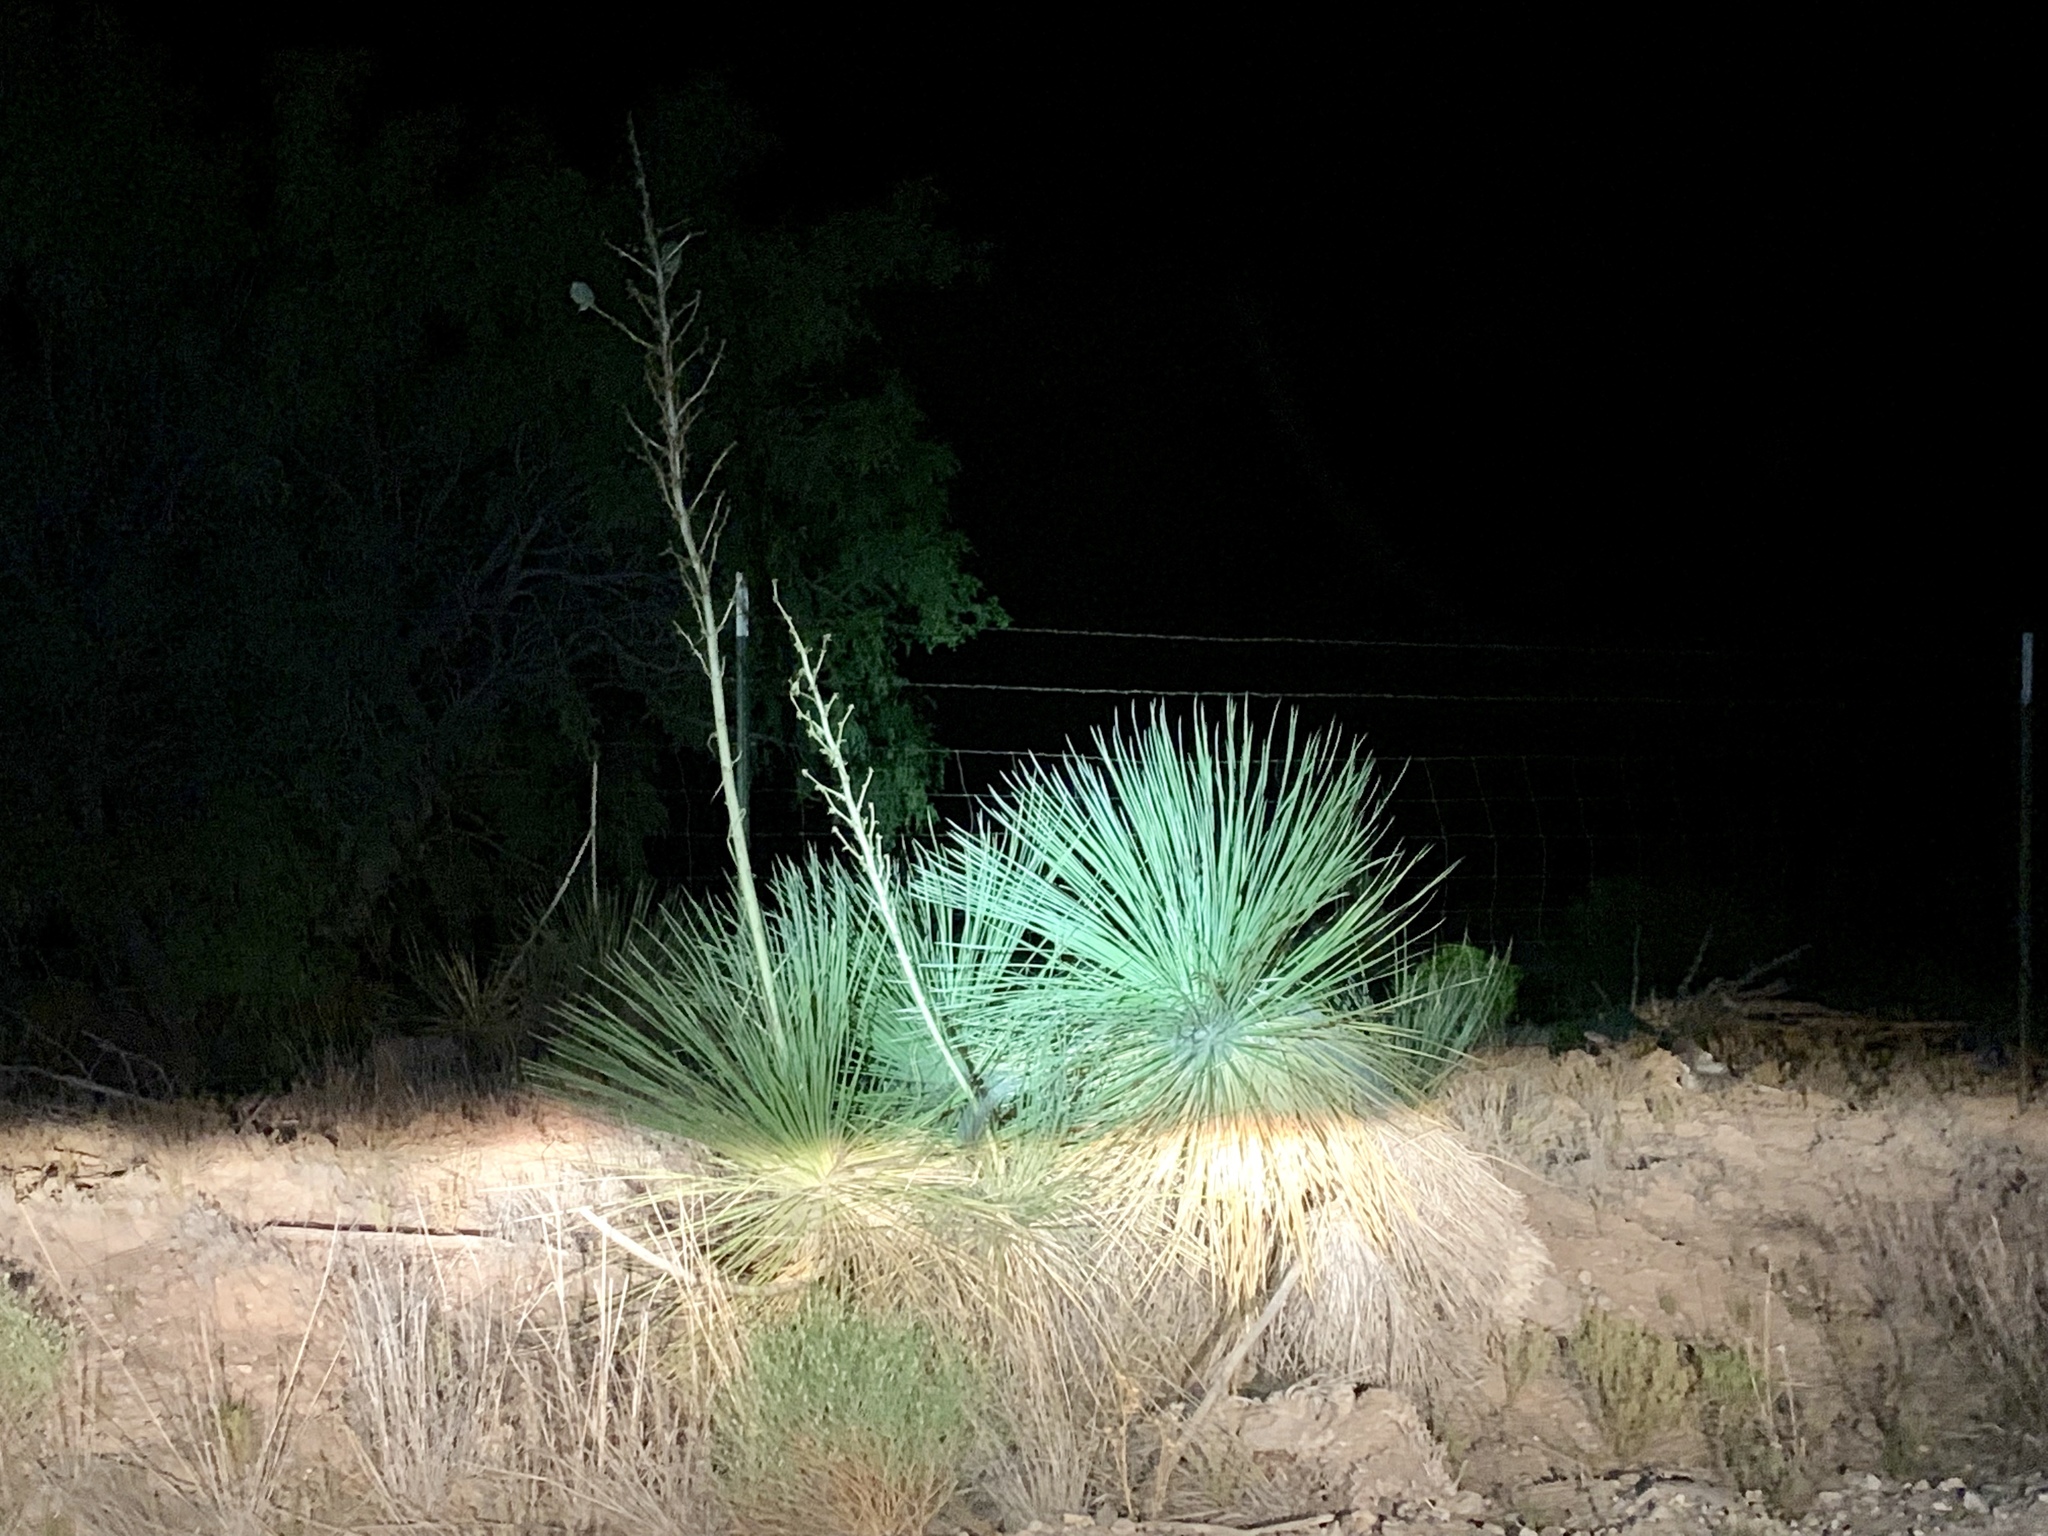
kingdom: Plantae
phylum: Tracheophyta
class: Liliopsida
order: Asparagales
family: Asparagaceae
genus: Yucca
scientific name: Yucca elata
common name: Palmella
